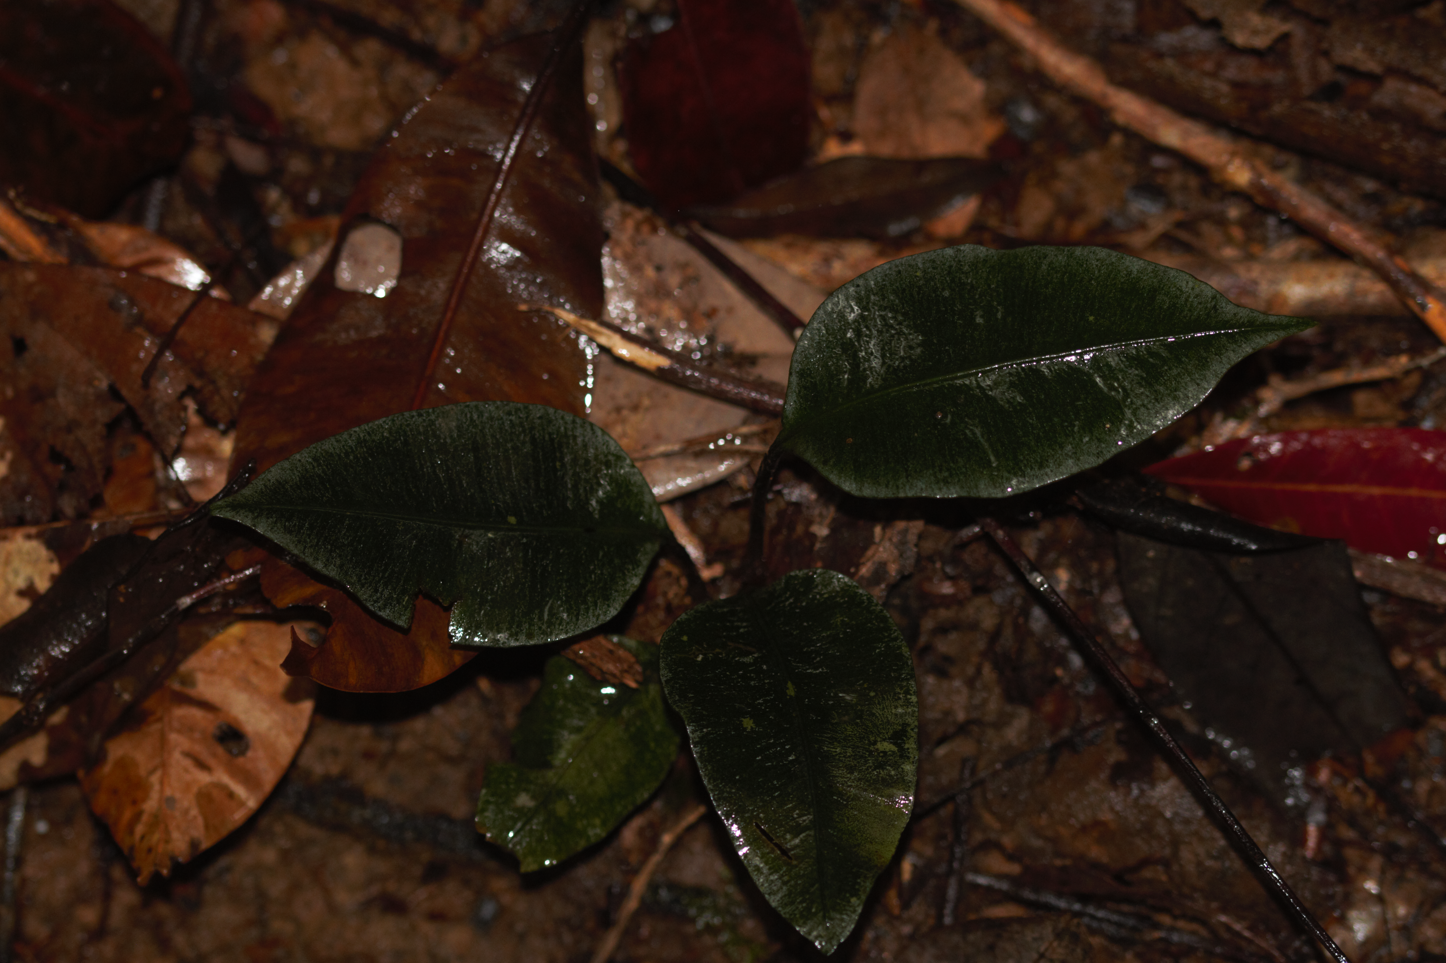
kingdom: Plantae
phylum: Tracheophyta
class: Polypodiopsida
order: Marattiales
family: Marattiaceae
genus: Danaea
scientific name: Danaea simplicifolia
